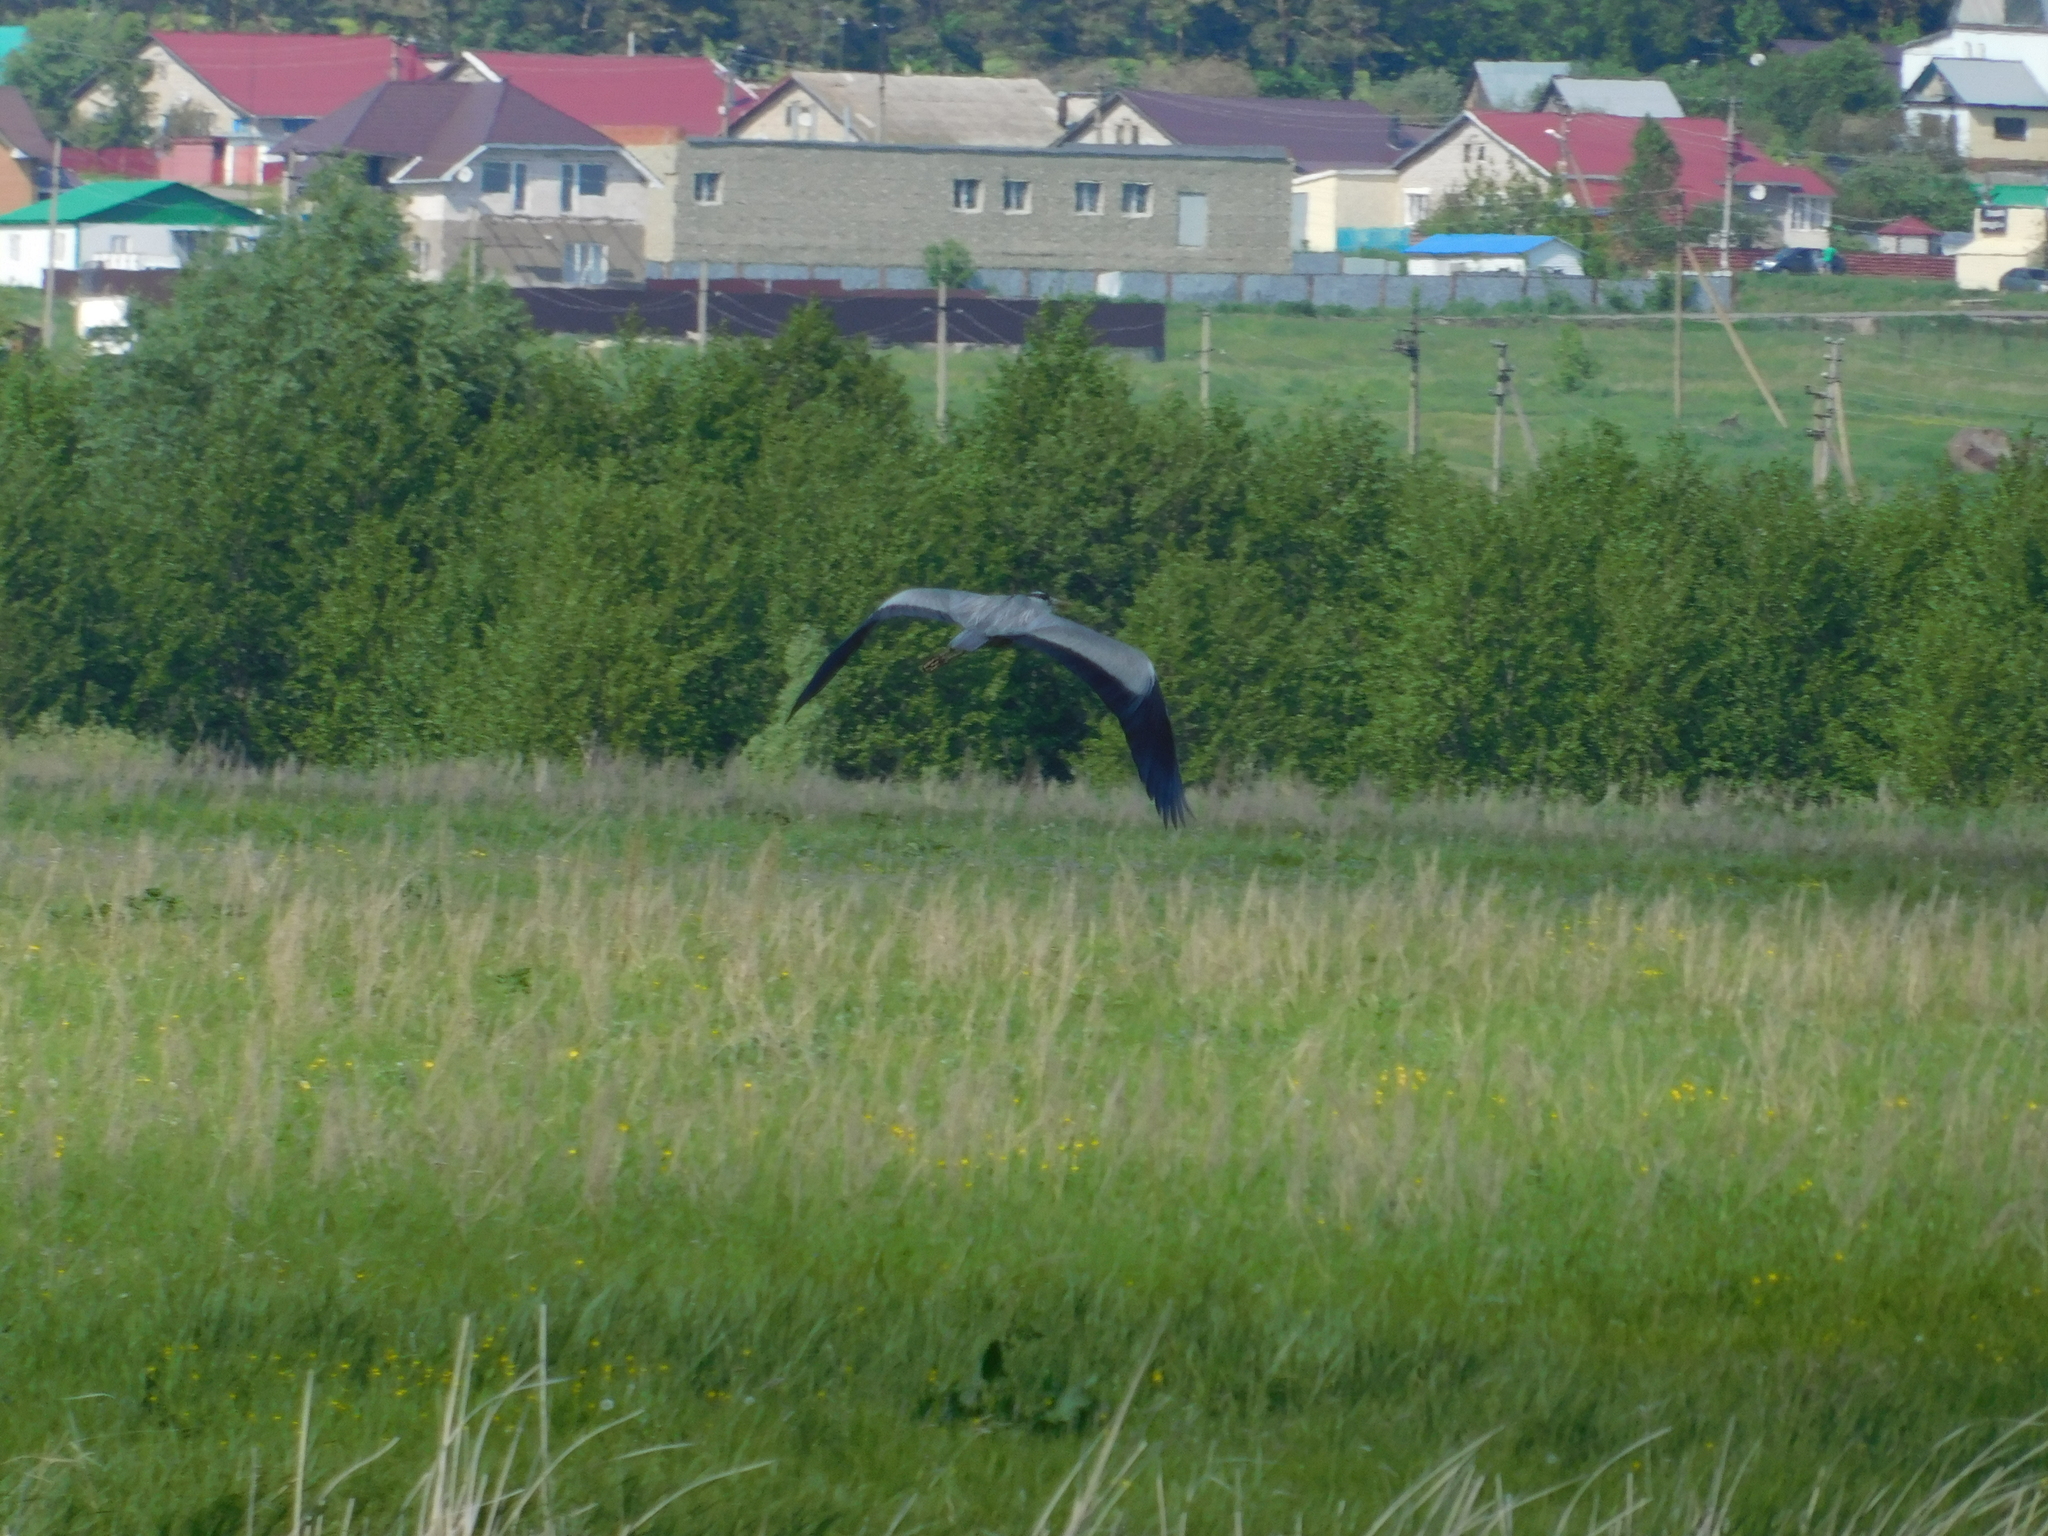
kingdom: Animalia
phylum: Chordata
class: Aves
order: Pelecaniformes
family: Ardeidae
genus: Ardea
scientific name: Ardea cinerea
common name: Grey heron
